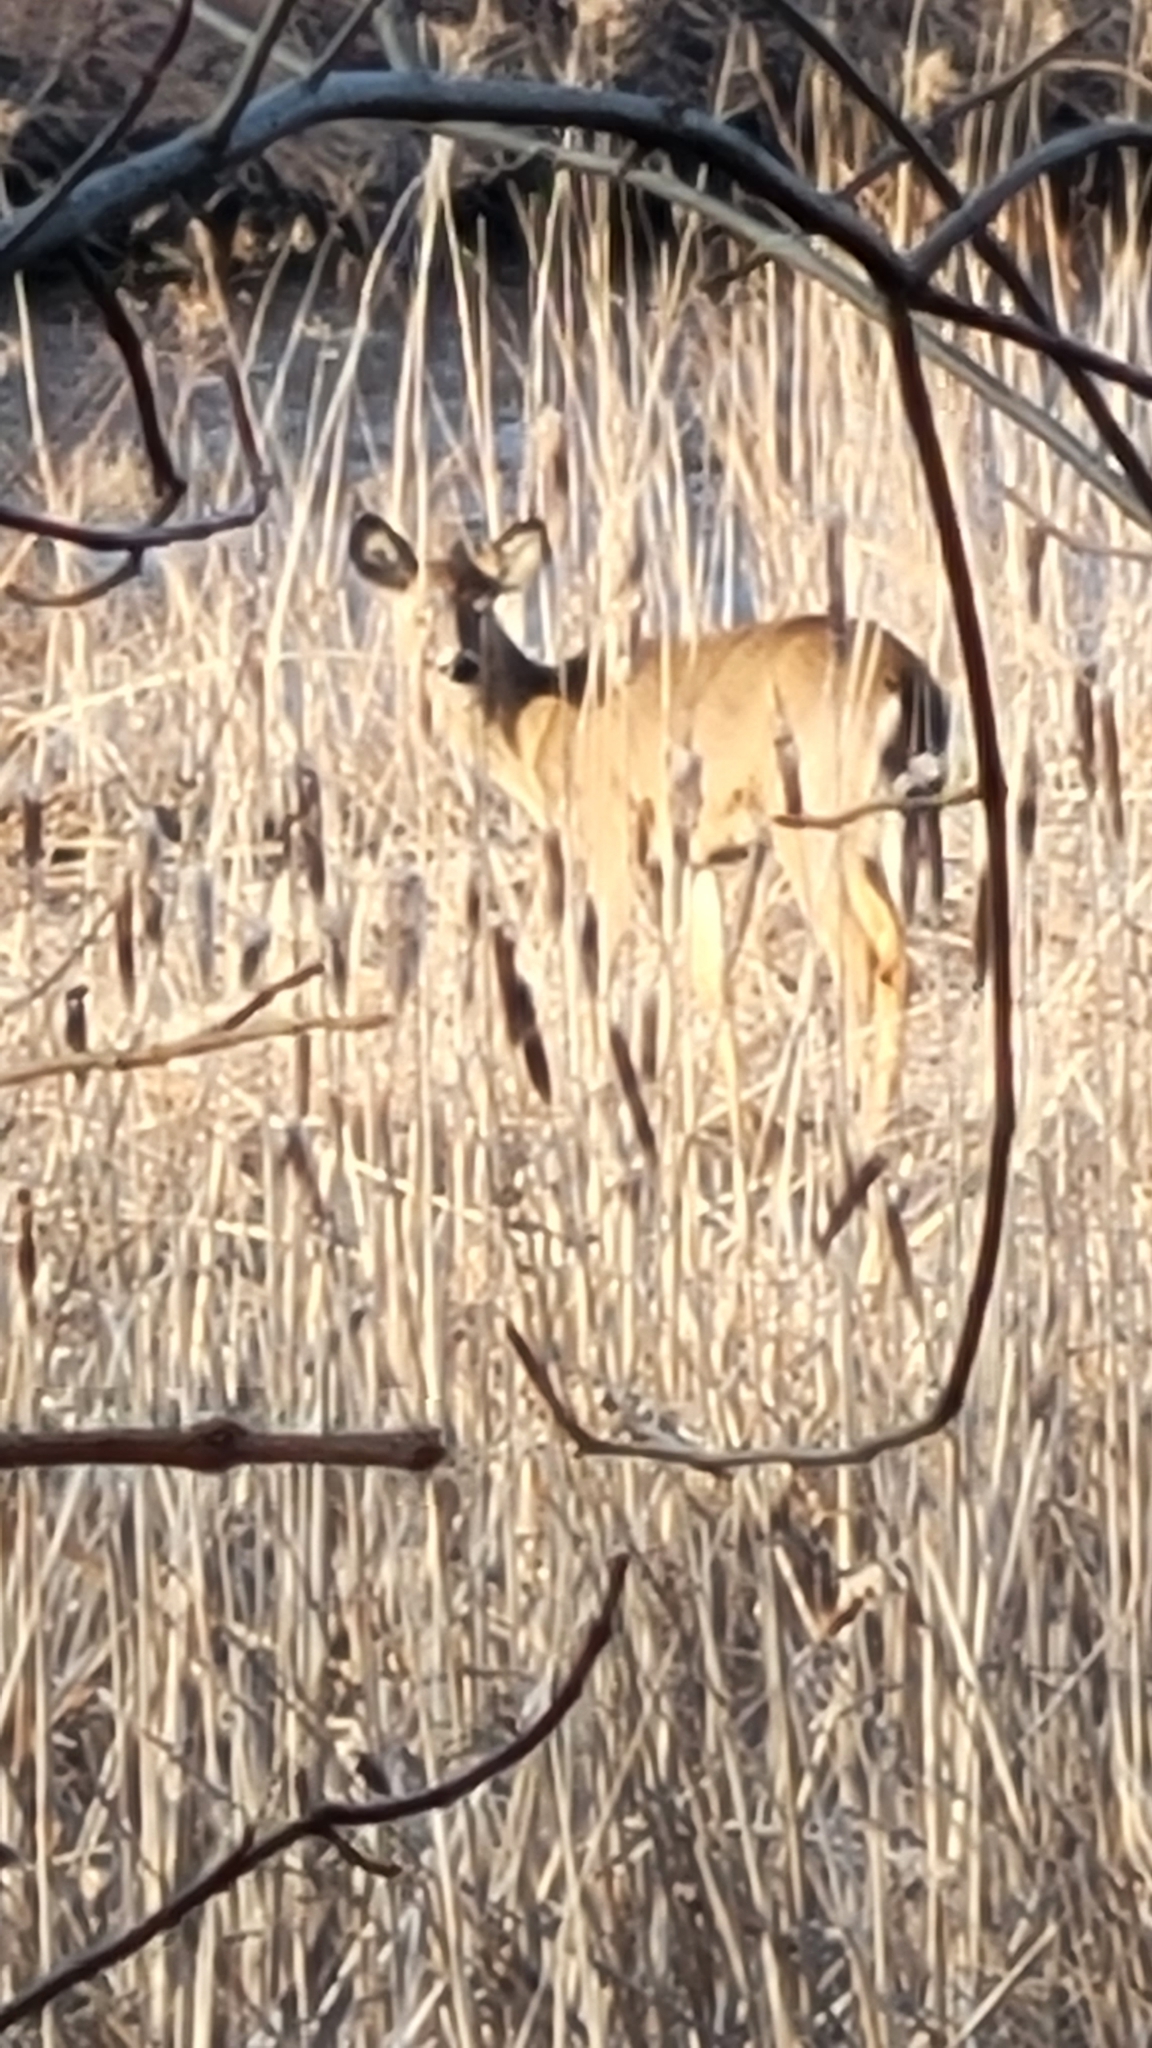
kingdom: Animalia
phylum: Chordata
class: Mammalia
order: Artiodactyla
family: Cervidae
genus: Odocoileus
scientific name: Odocoileus virginianus
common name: White-tailed deer
